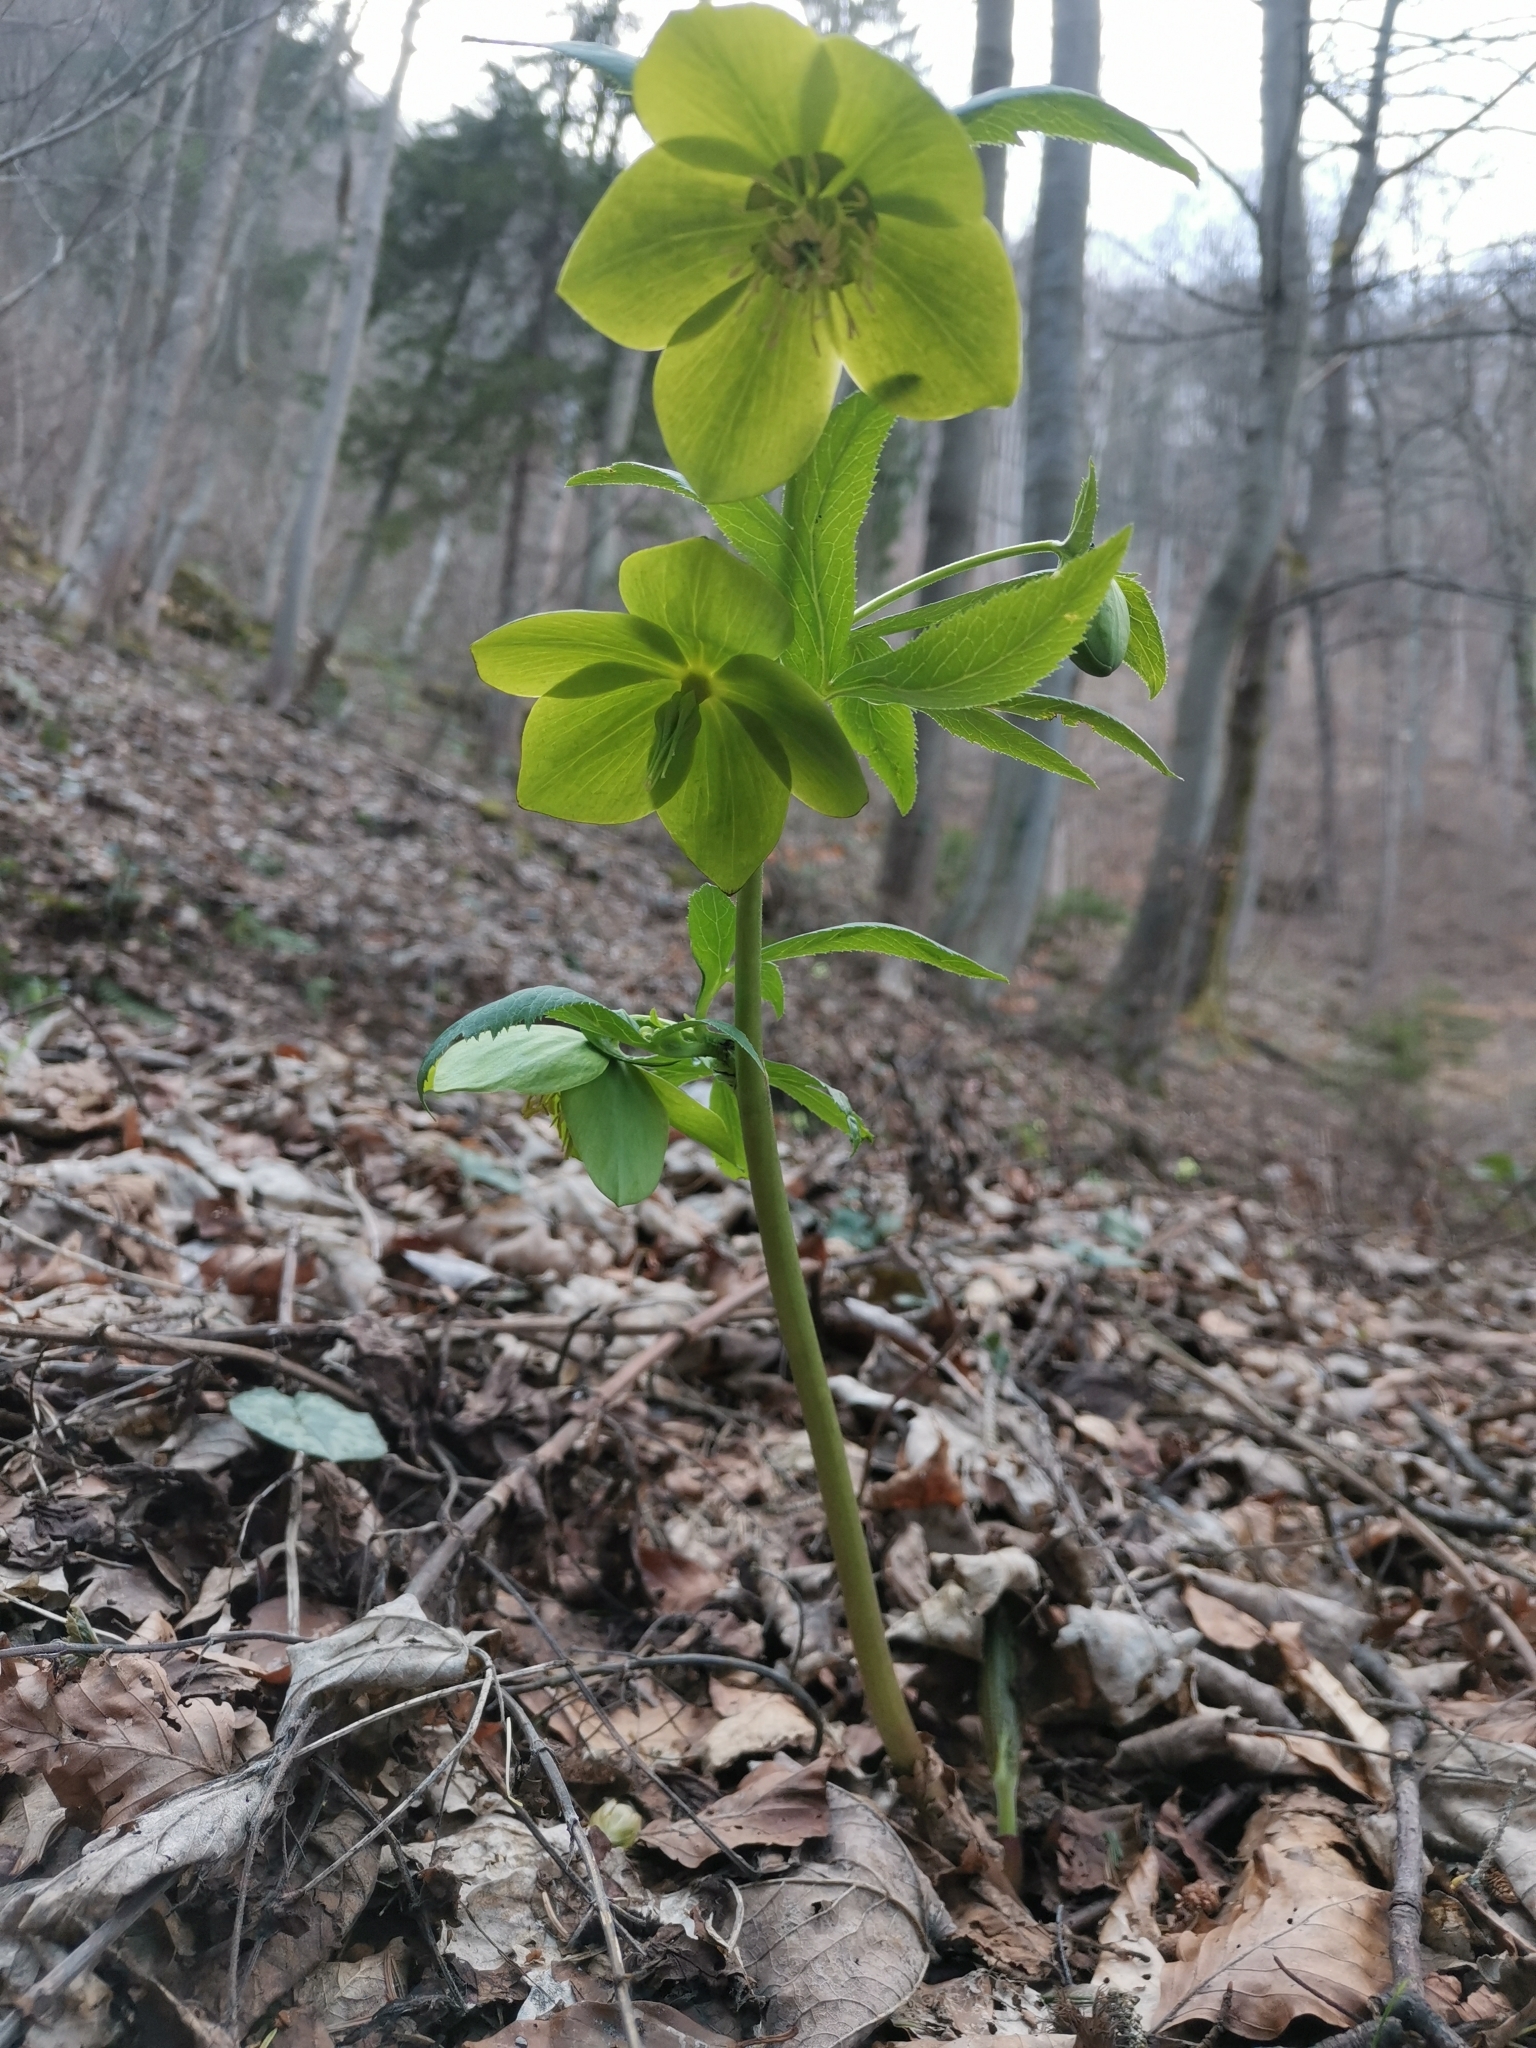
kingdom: Plantae
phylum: Tracheophyta
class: Magnoliopsida
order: Ranunculales
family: Ranunculaceae
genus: Helleborus
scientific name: Helleborus odorus
